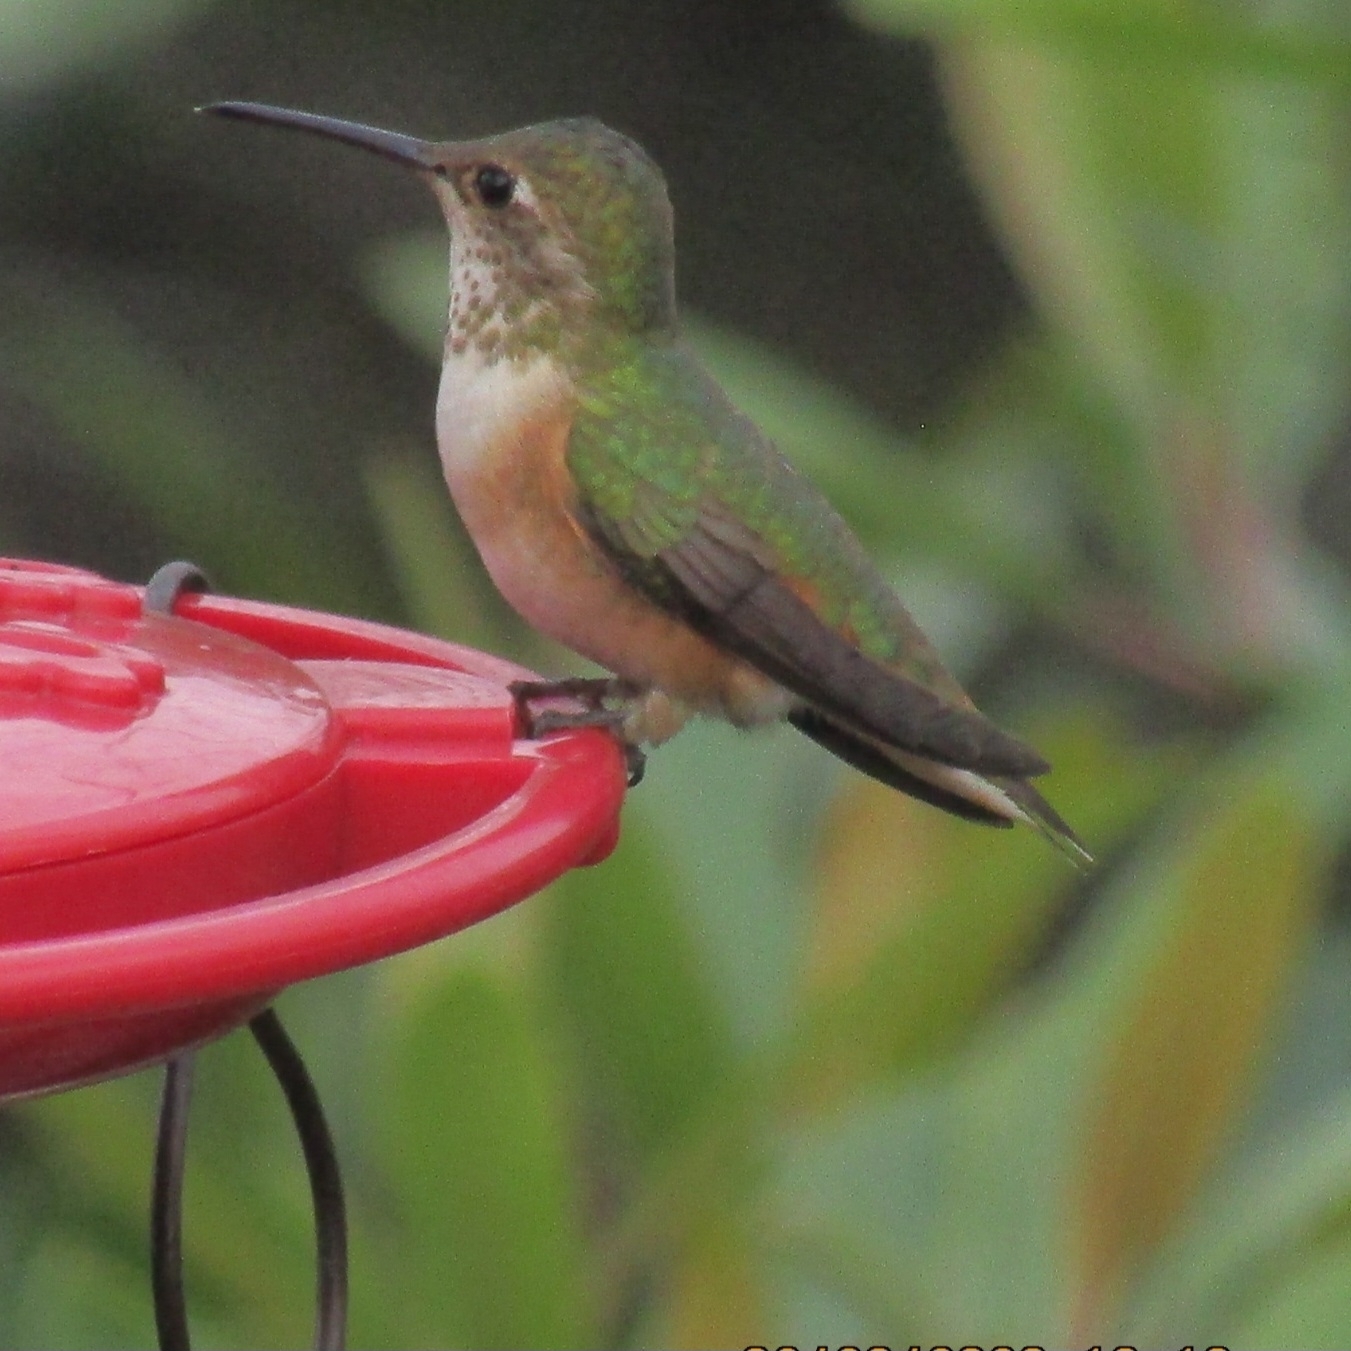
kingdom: Animalia
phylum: Chordata
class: Aves
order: Apodiformes
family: Trochilidae
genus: Selasphorus
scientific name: Selasphorus
